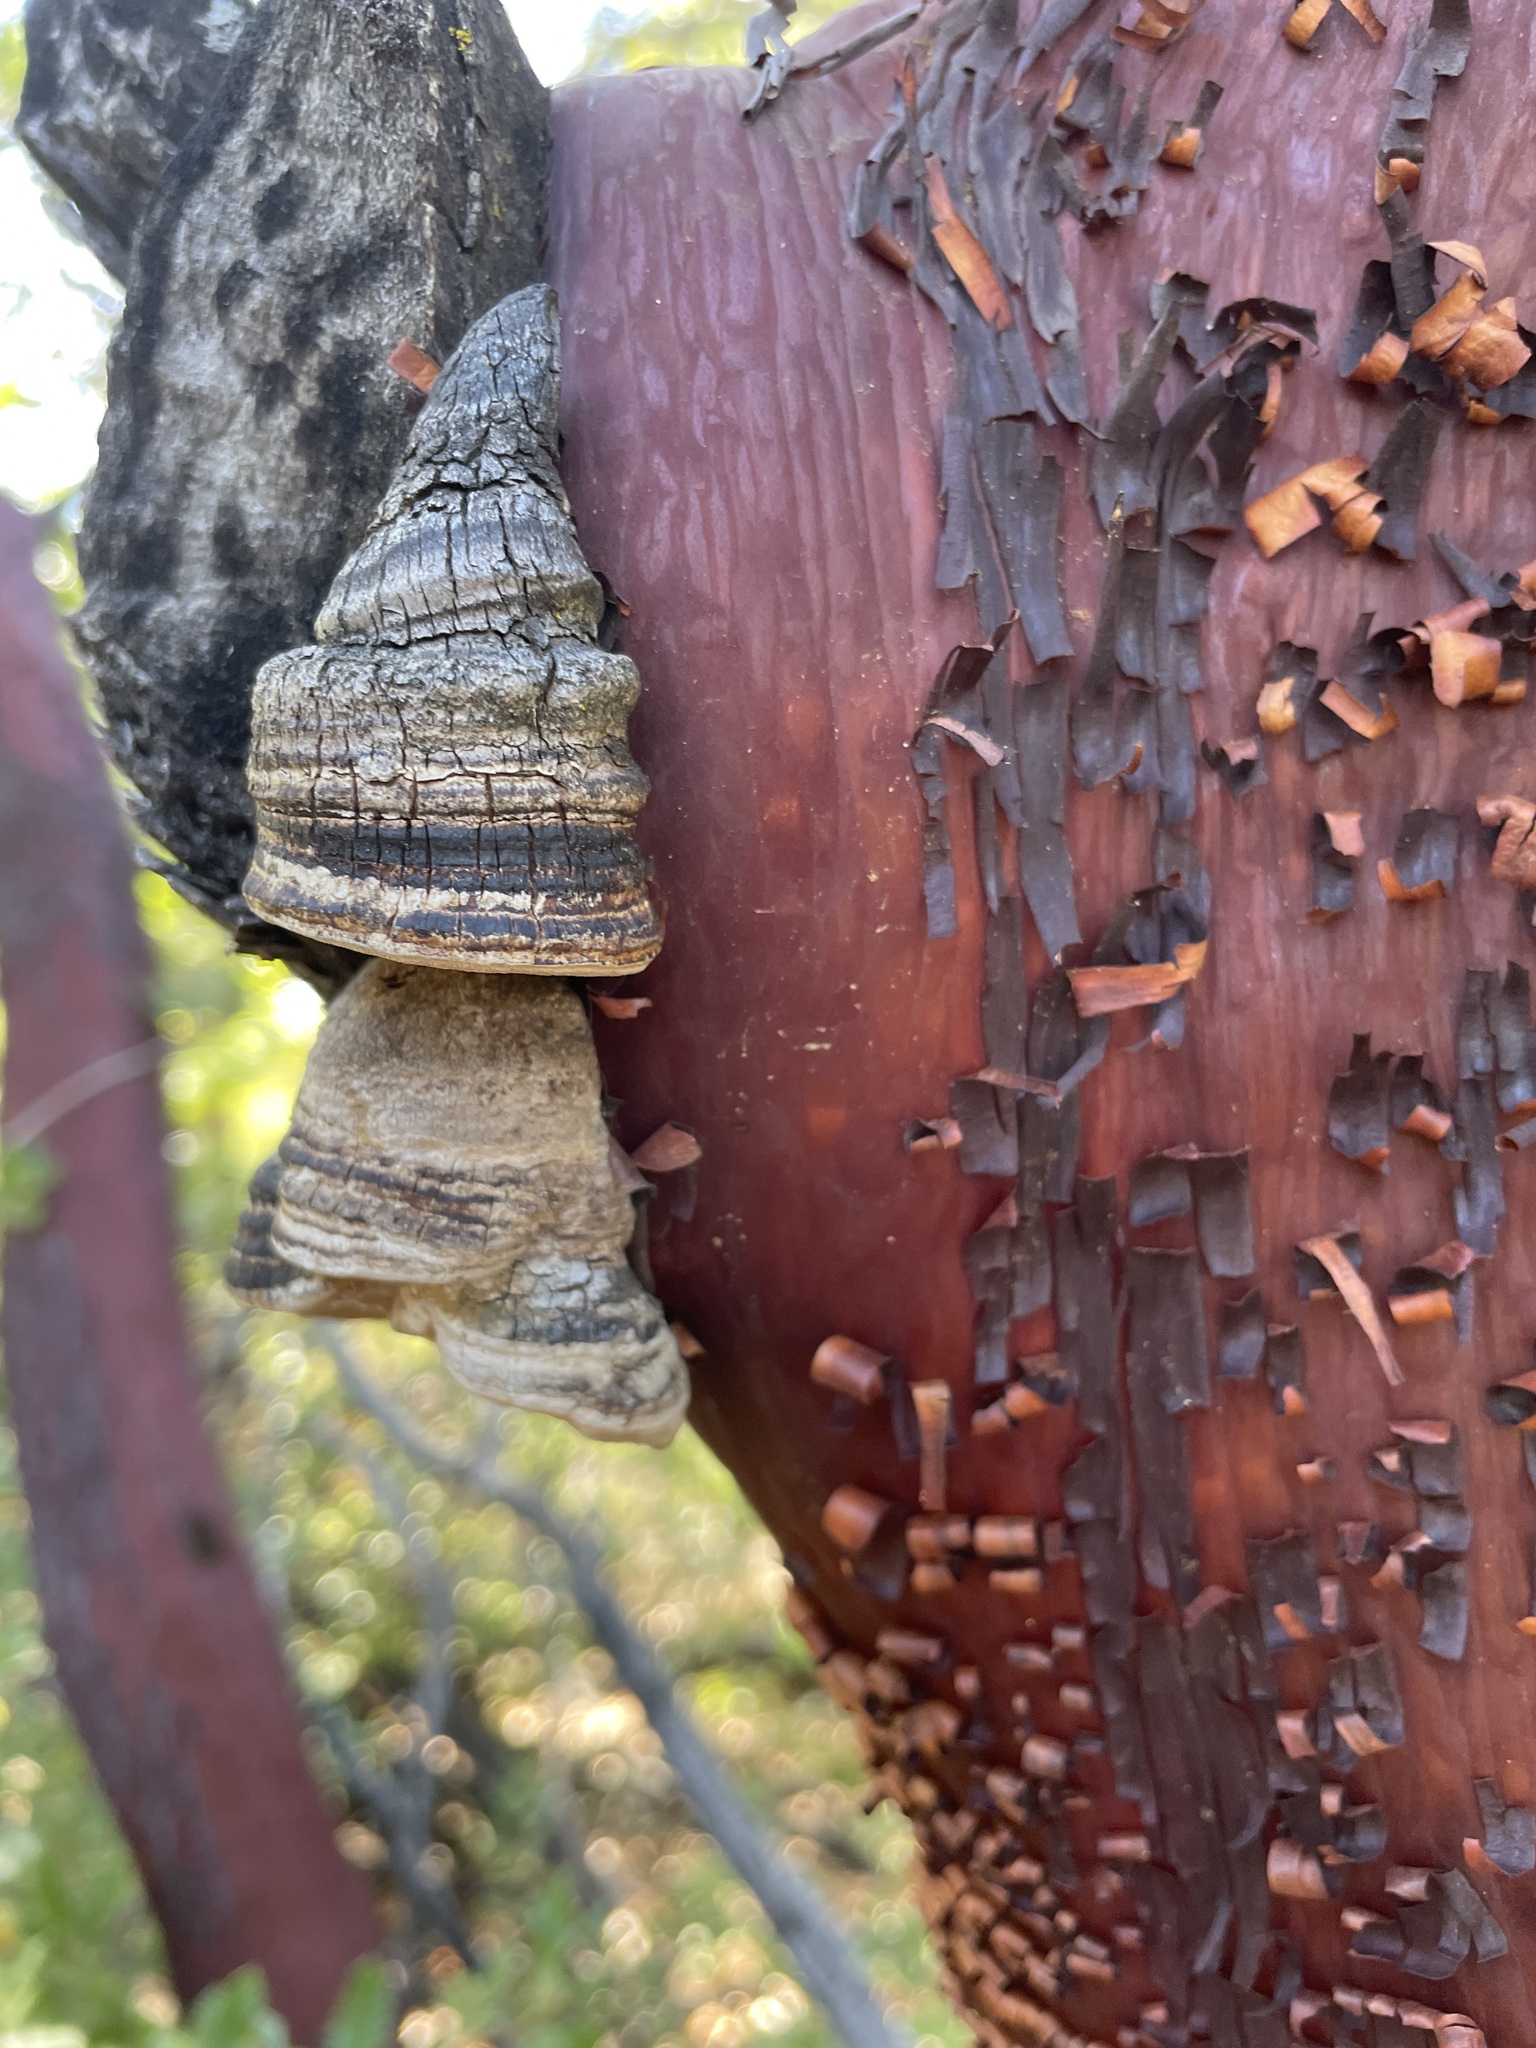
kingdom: Fungi
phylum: Basidiomycota
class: Agaricomycetes
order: Polyporales
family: Polyporaceae
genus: Fomes
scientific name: Fomes arctostaphyli
